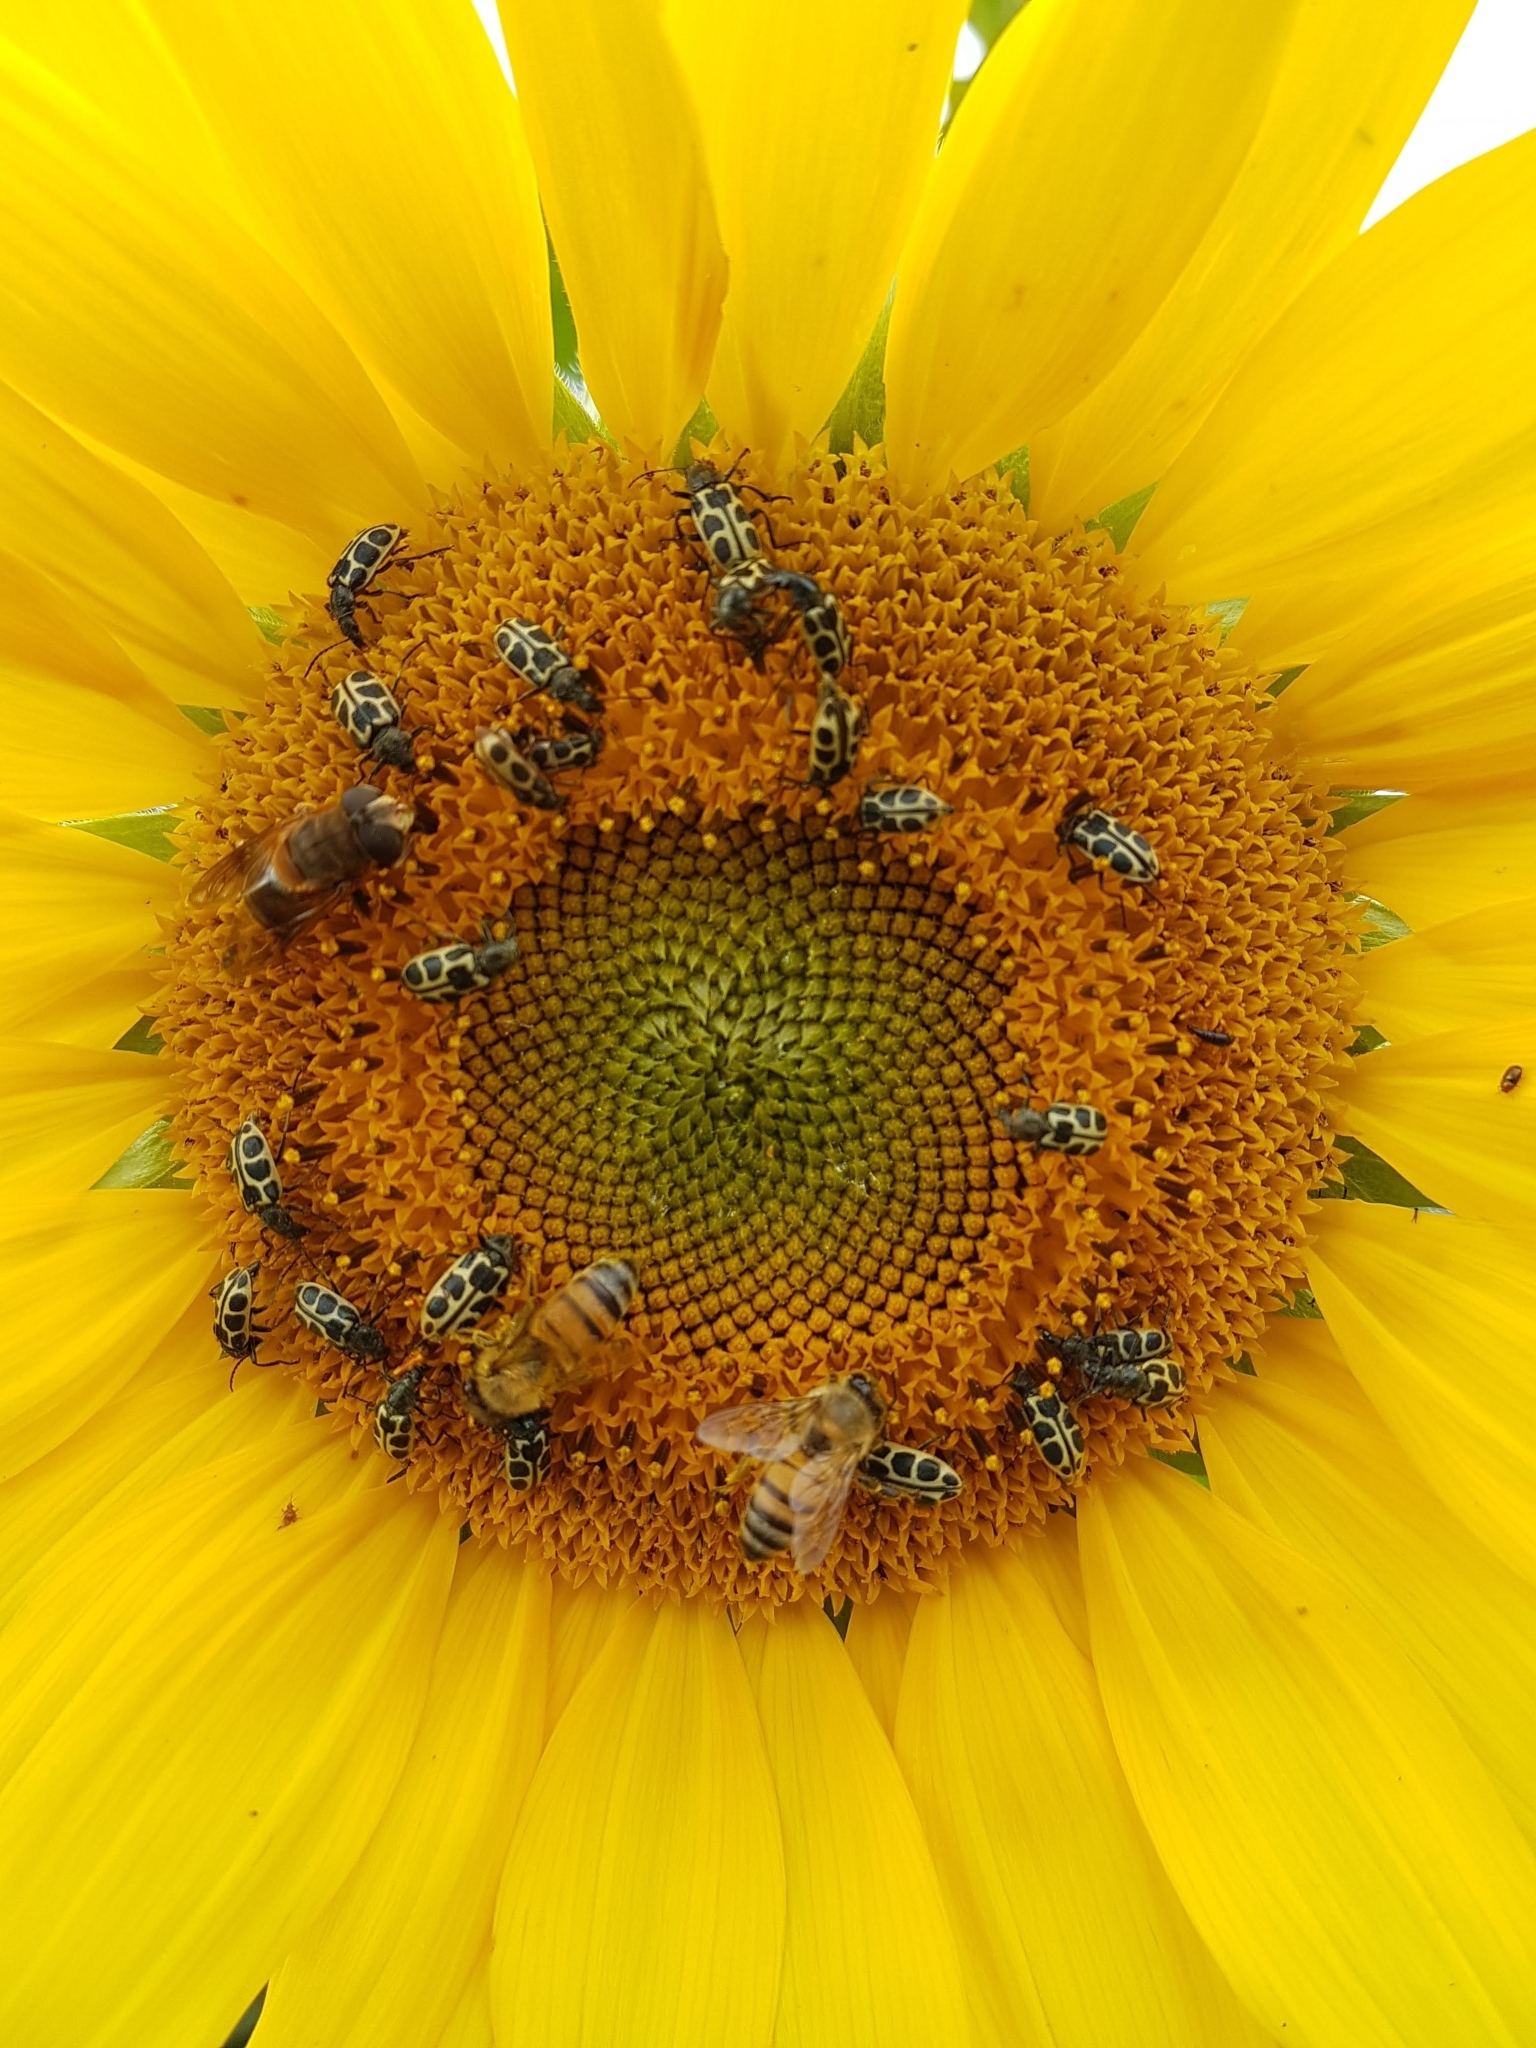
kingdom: Animalia
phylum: Arthropoda
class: Insecta
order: Coleoptera
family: Melyridae
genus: Astylus
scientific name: Astylus
